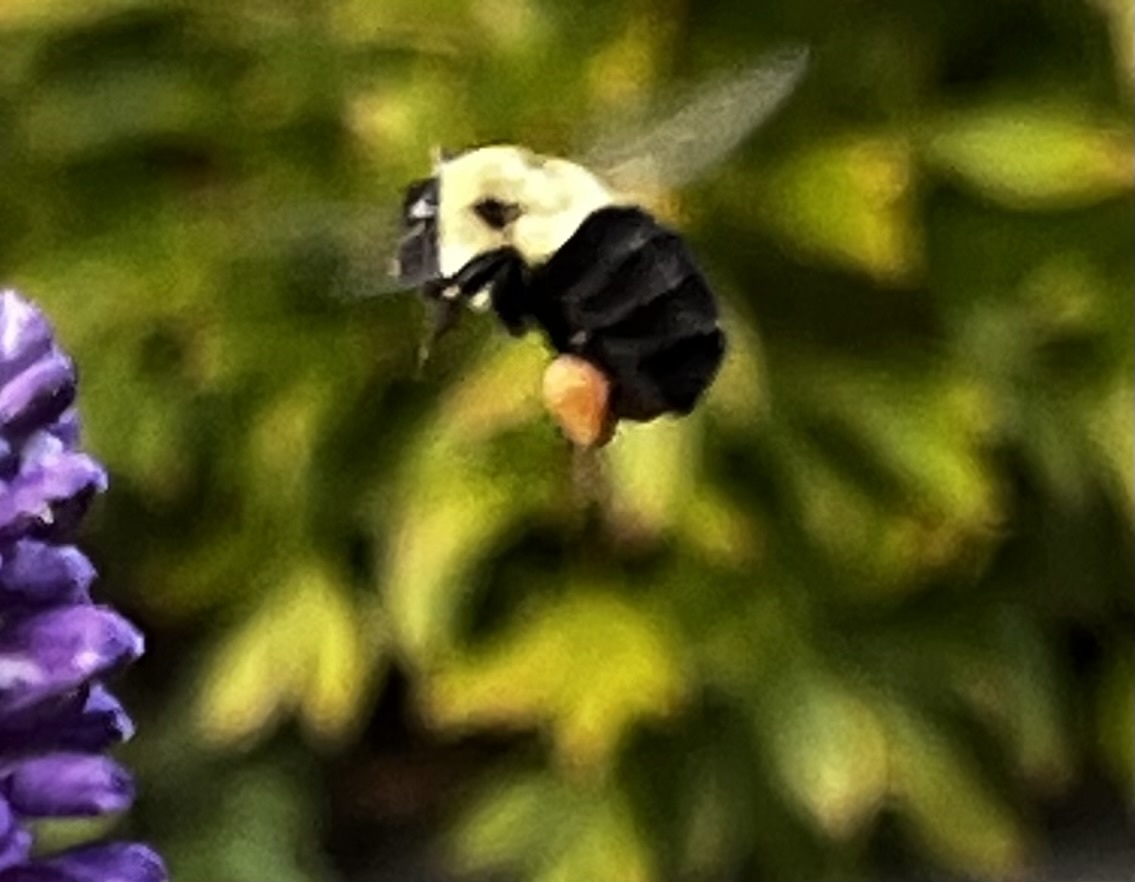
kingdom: Animalia
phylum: Arthropoda
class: Insecta
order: Hymenoptera
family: Apidae
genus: Bombus
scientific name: Bombus impatiens
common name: Common eastern bumble bee
